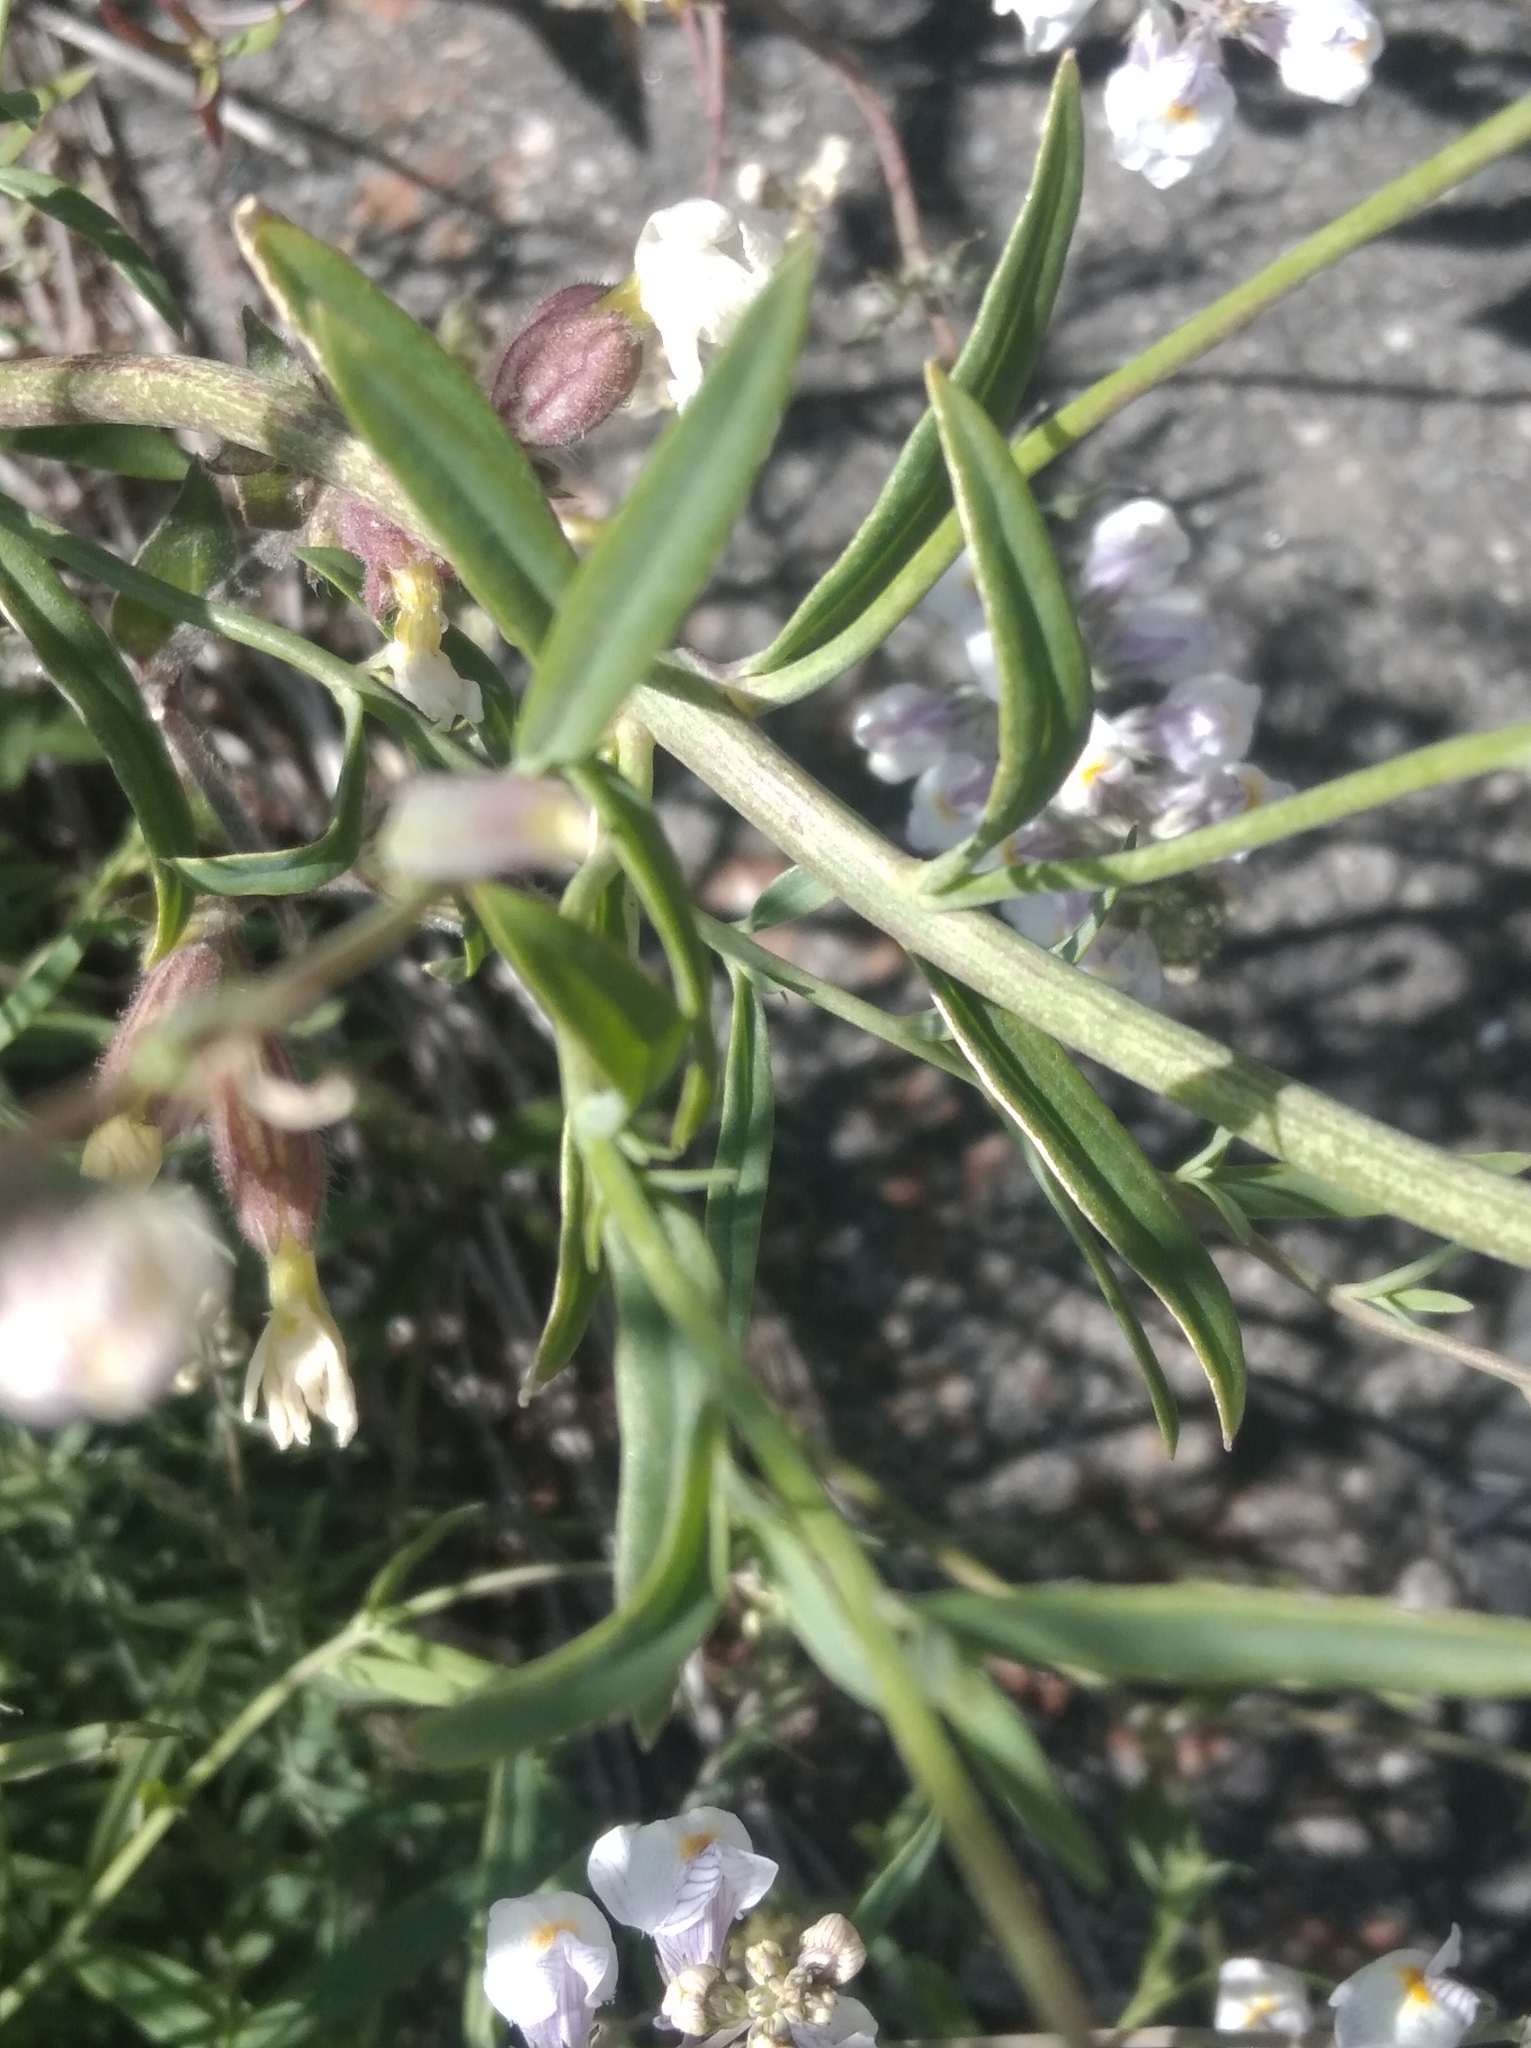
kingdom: Plantae
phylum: Tracheophyta
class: Magnoliopsida
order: Lamiales
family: Plantaginaceae
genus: Linaria
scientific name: Linaria repens
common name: Pale toadflax
